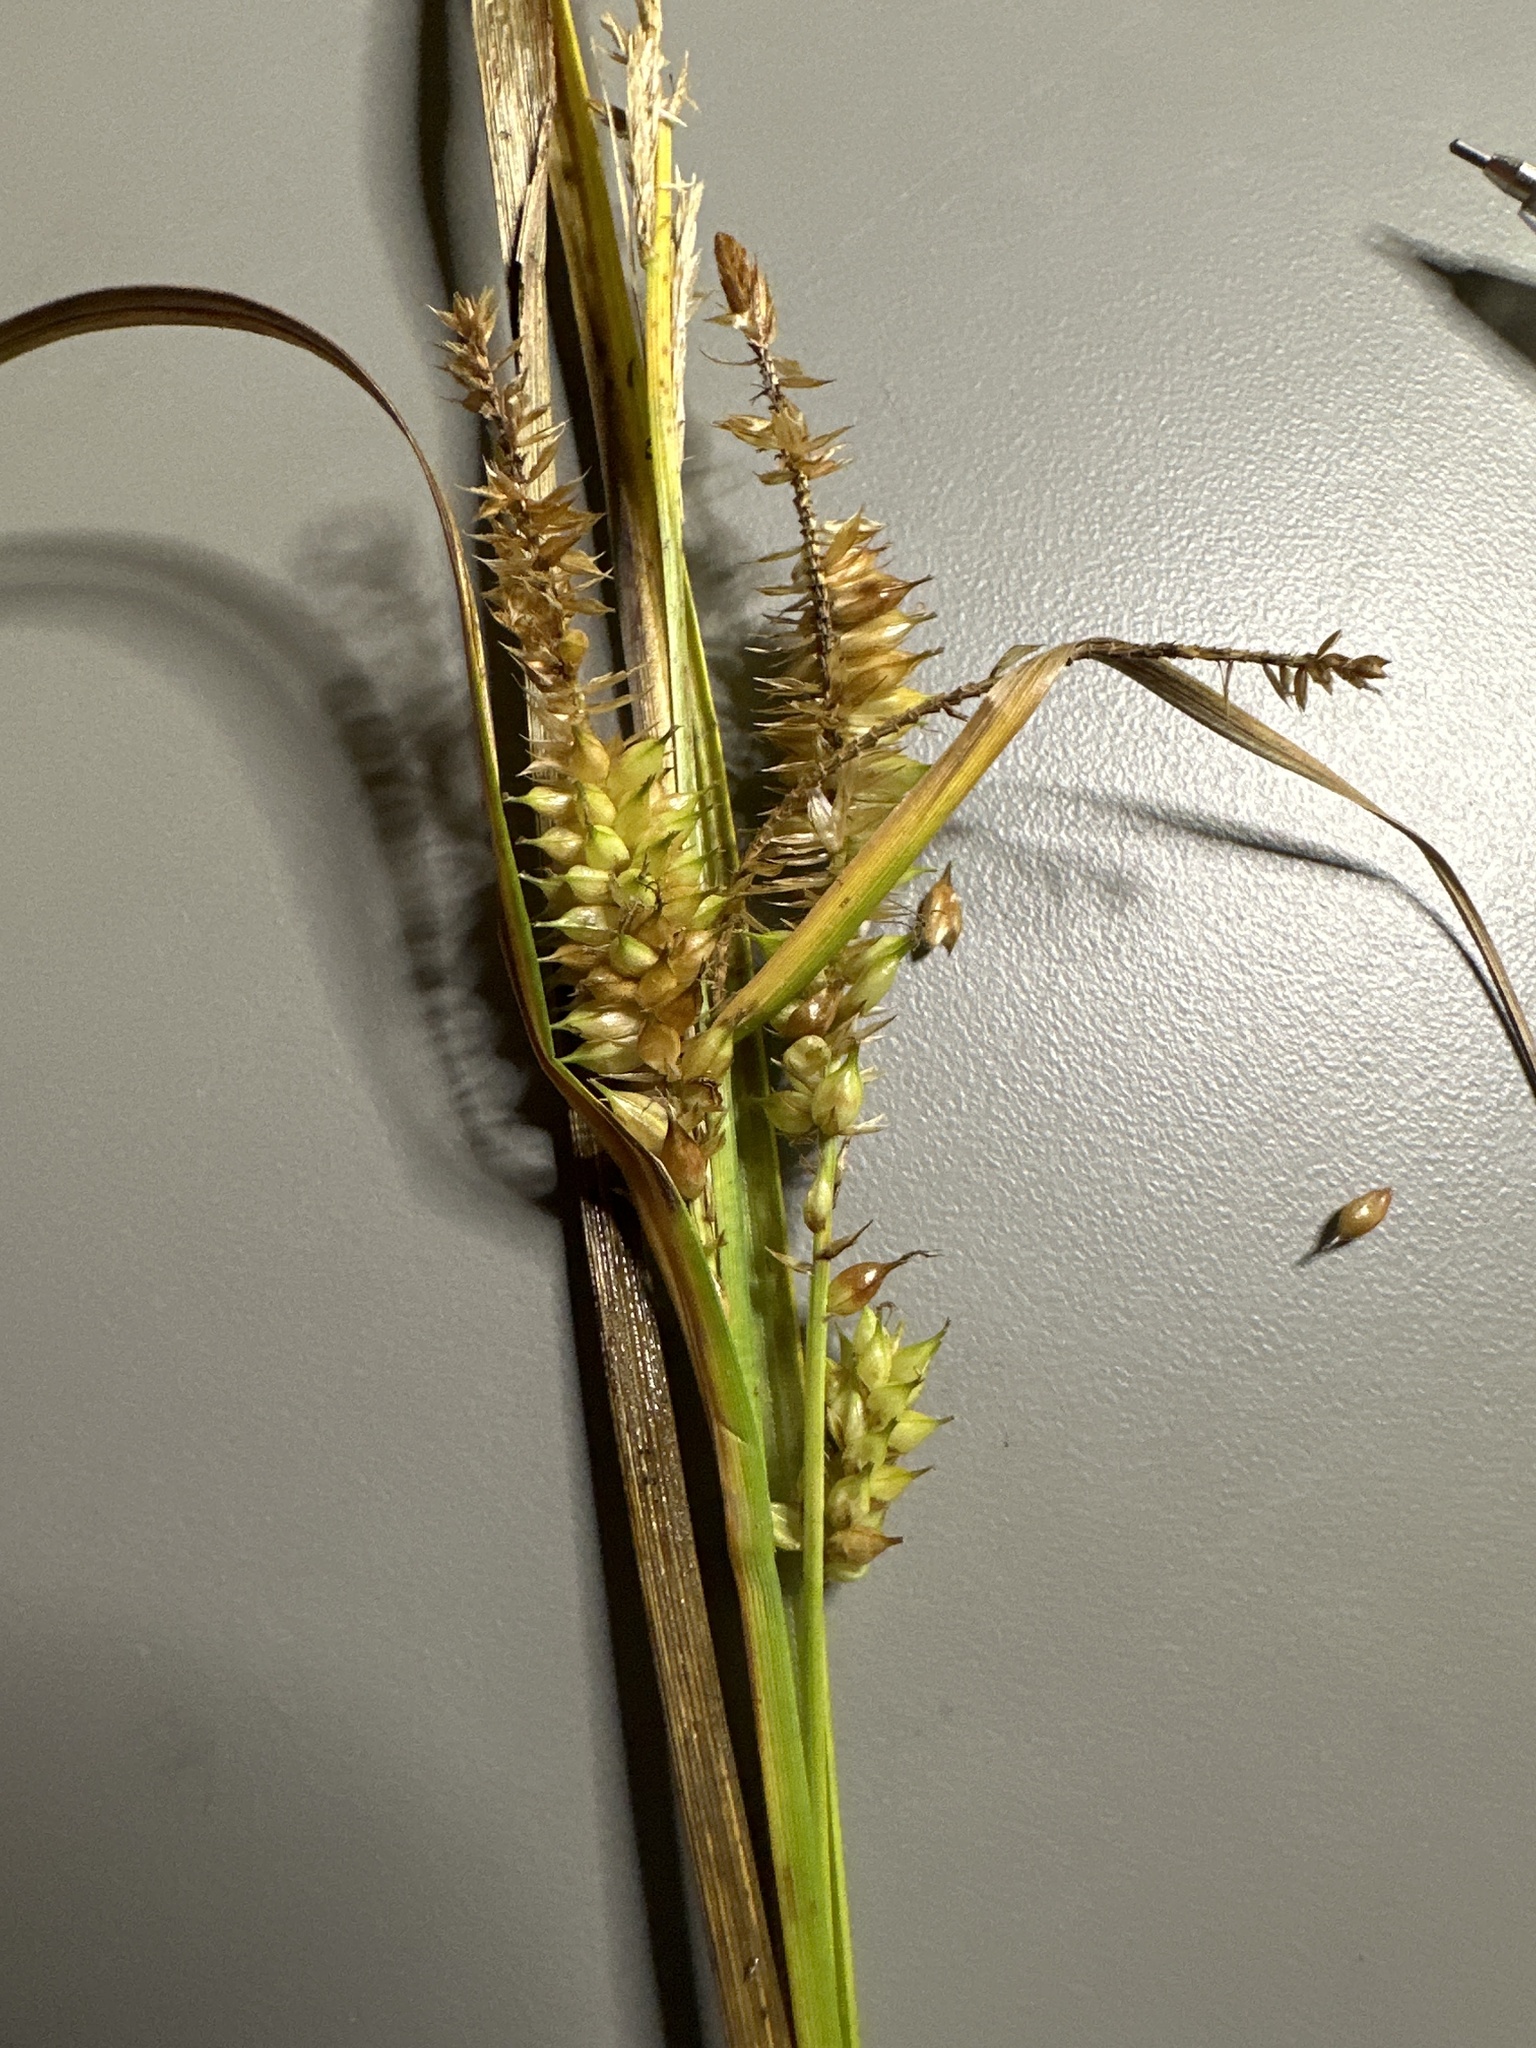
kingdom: Plantae
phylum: Tracheophyta
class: Liliopsida
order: Poales
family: Cyperaceae
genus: Carex
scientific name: Carex utriculata
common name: Beaked sedge
